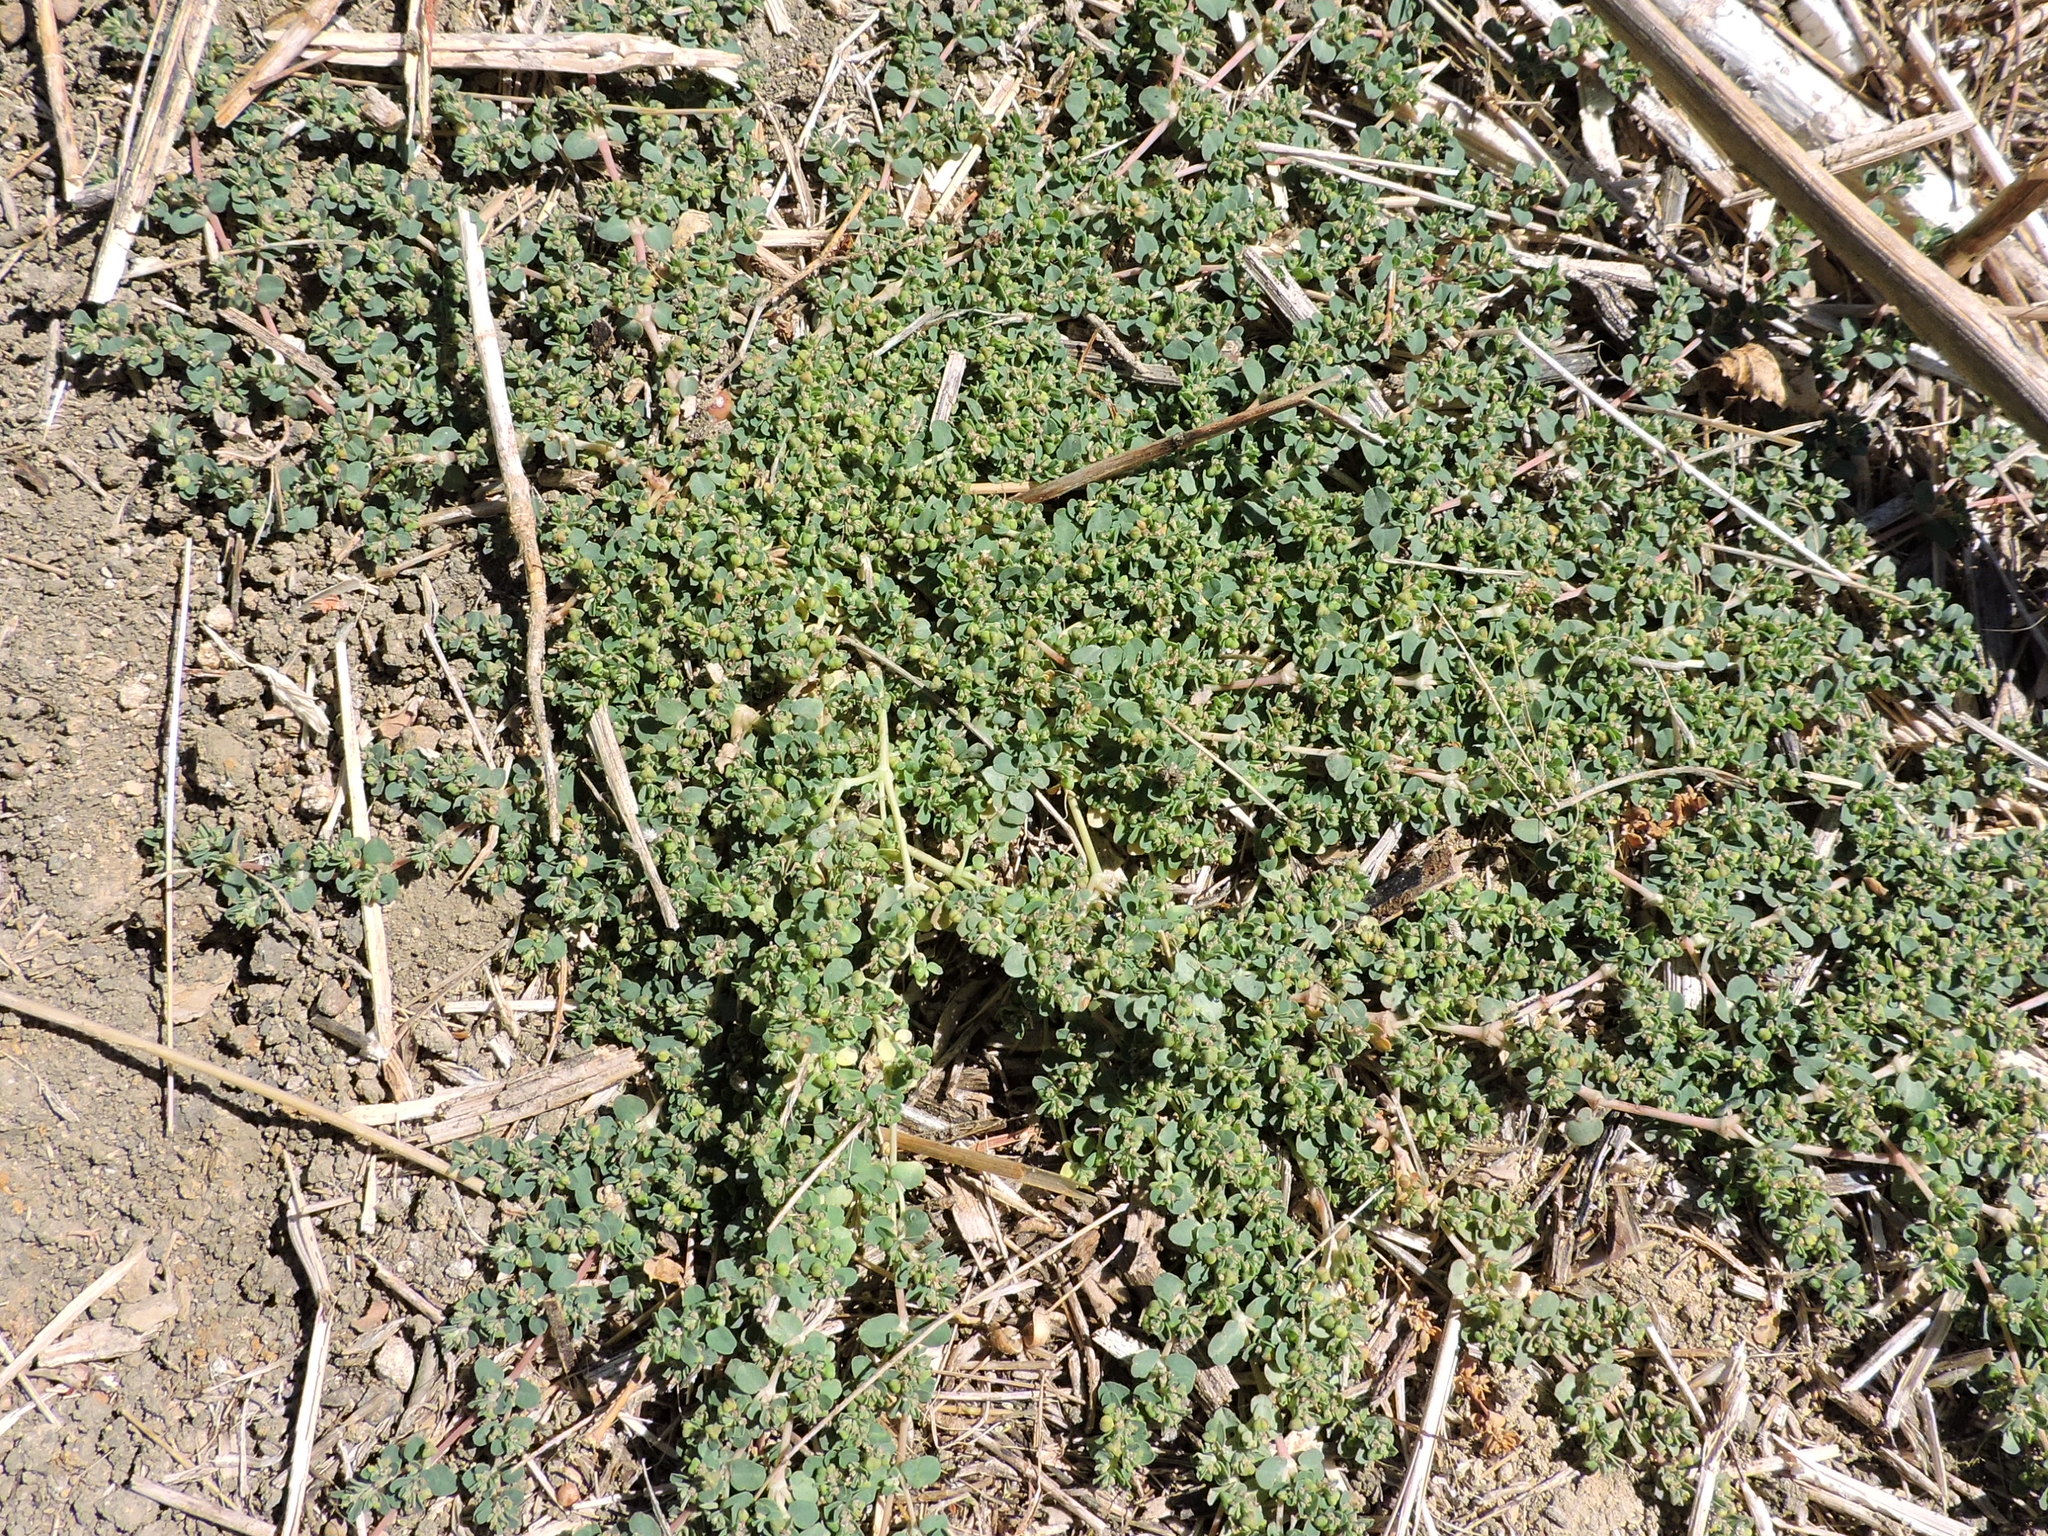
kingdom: Plantae
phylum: Tracheophyta
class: Magnoliopsida
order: Malpighiales
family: Euphorbiaceae
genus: Euphorbia
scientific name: Euphorbia serpens
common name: Matted sandmat
